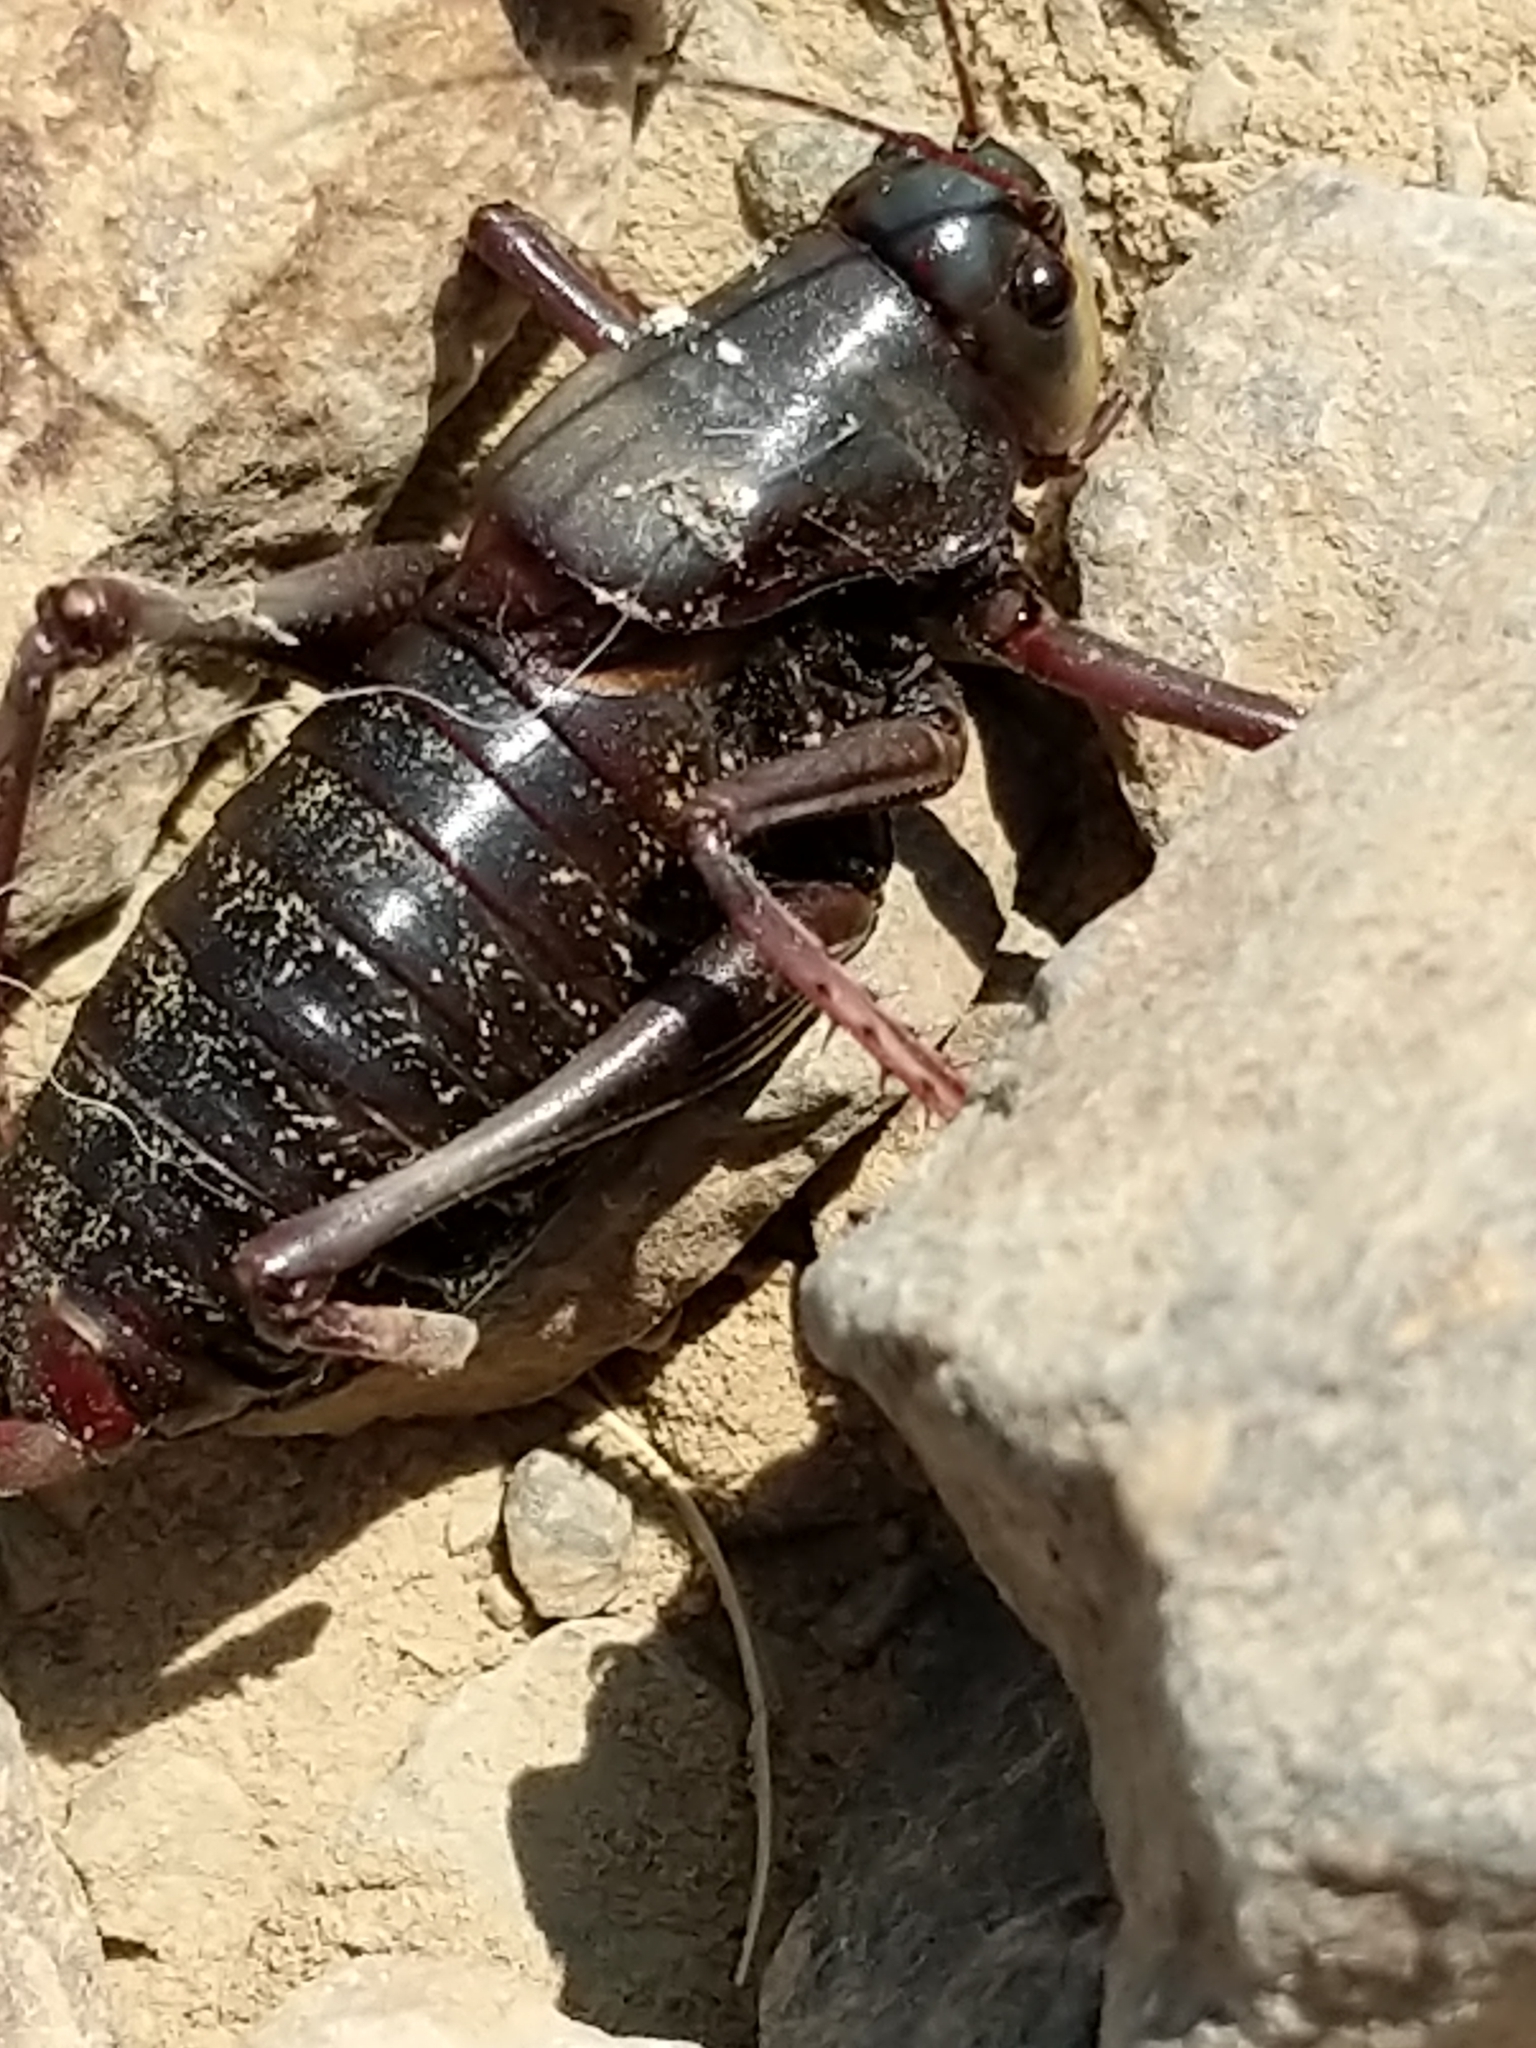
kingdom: Animalia
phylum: Arthropoda
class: Insecta
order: Orthoptera
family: Tettigoniidae
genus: Anabrus
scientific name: Anabrus simplex
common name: Mormon cricket
